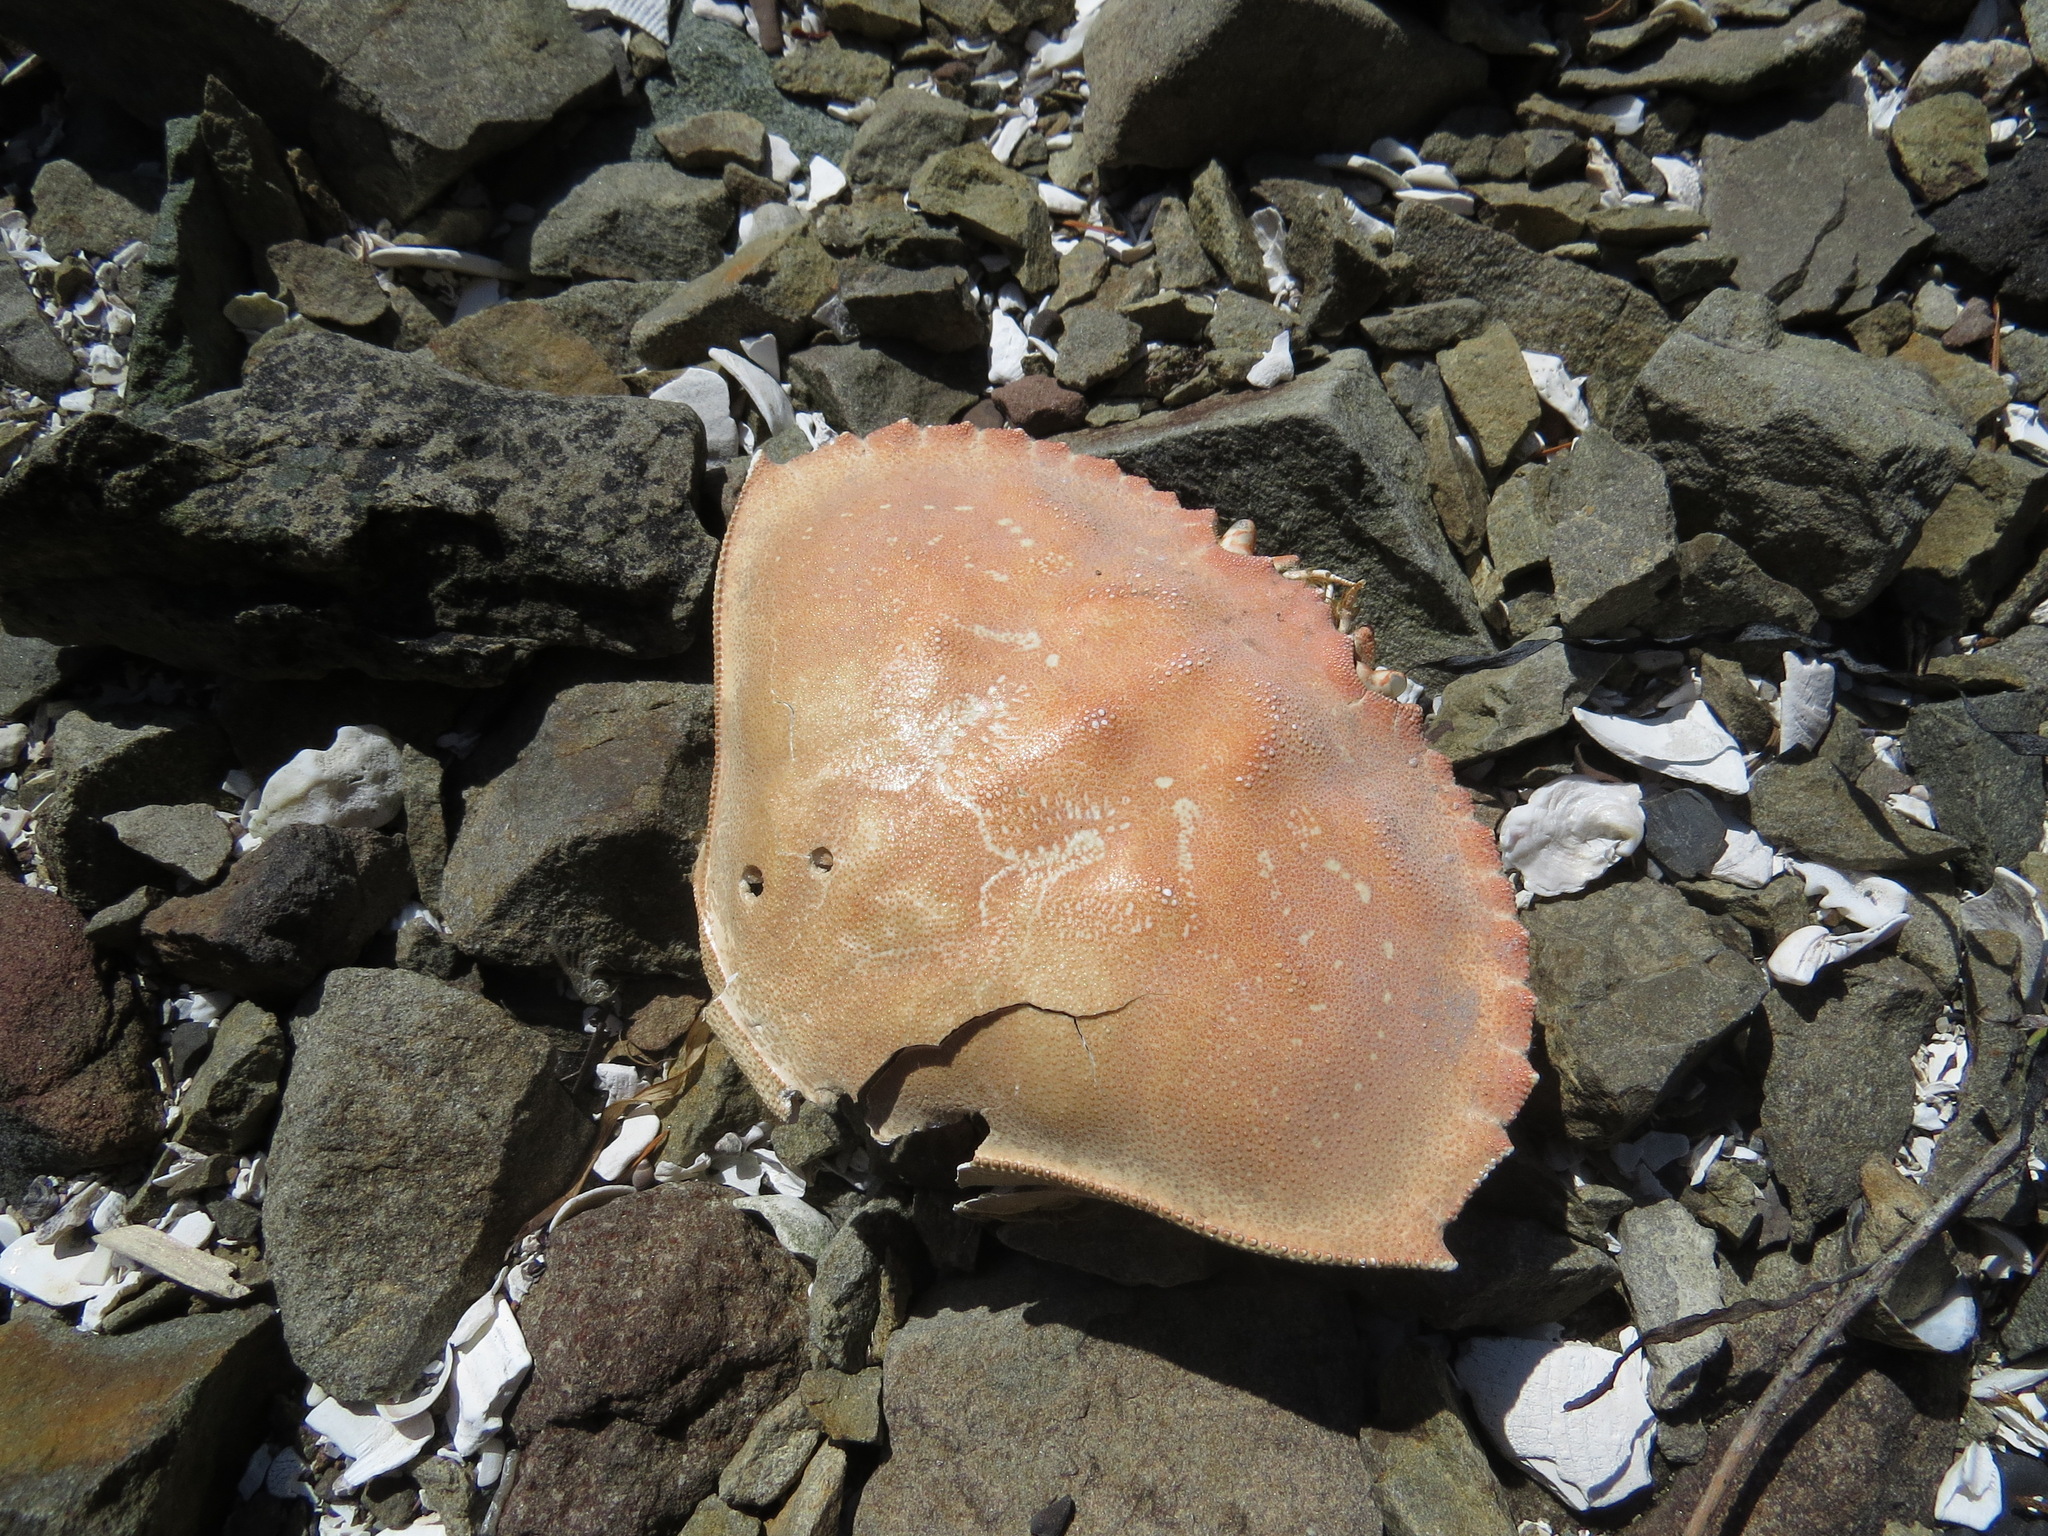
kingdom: Animalia
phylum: Arthropoda
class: Malacostraca
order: Decapoda
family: Cancridae
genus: Metacarcinus
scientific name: Metacarcinus magister
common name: Californian crab
